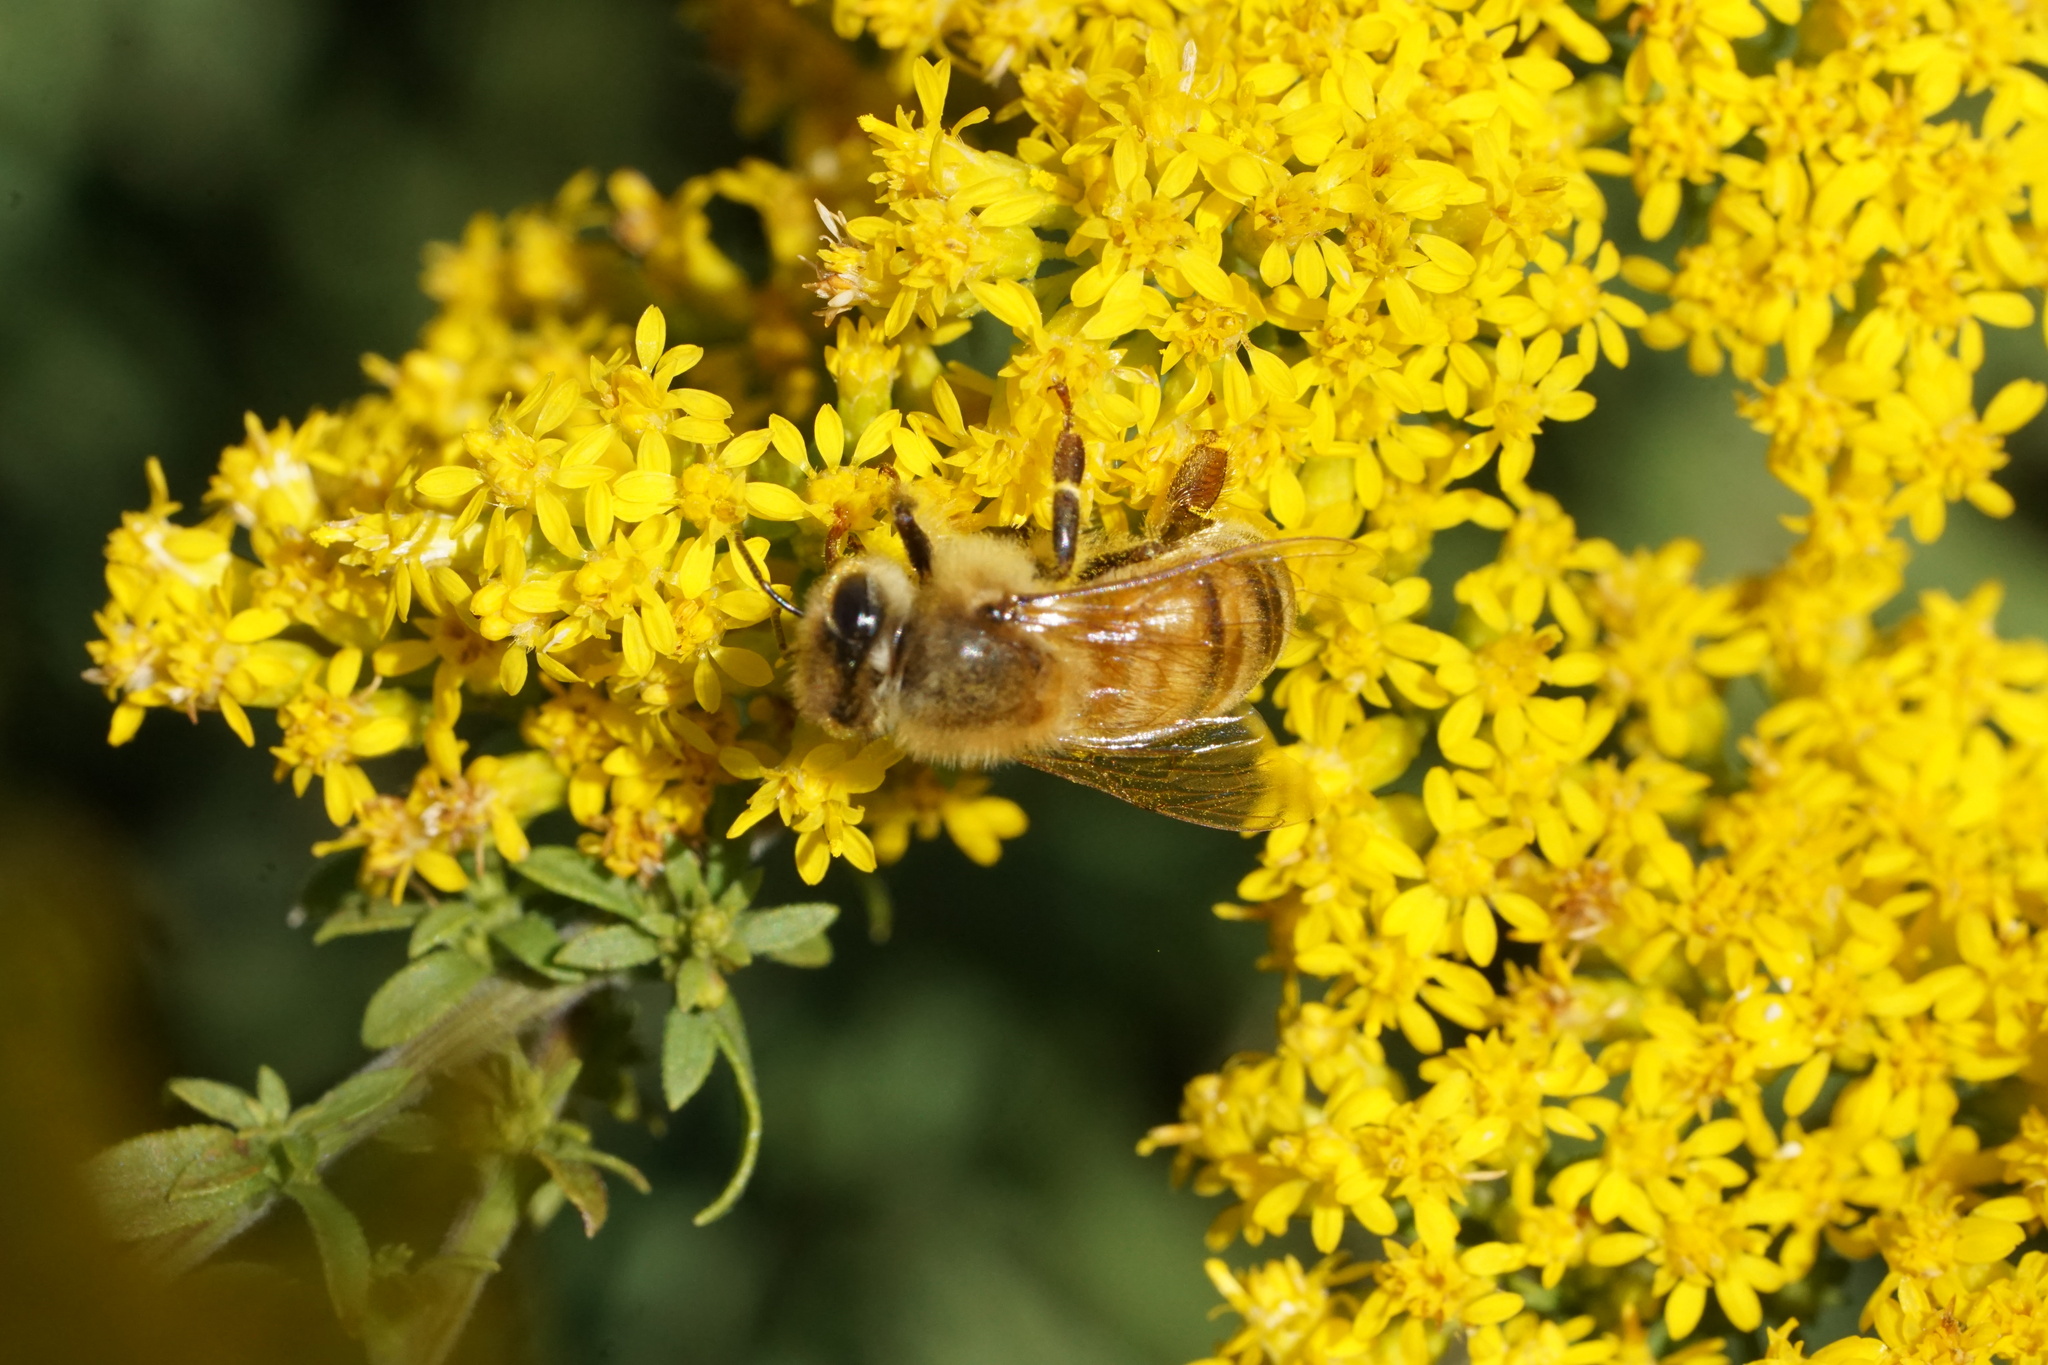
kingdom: Animalia
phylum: Arthropoda
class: Insecta
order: Hymenoptera
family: Apidae
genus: Apis
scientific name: Apis mellifera
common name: Honey bee
